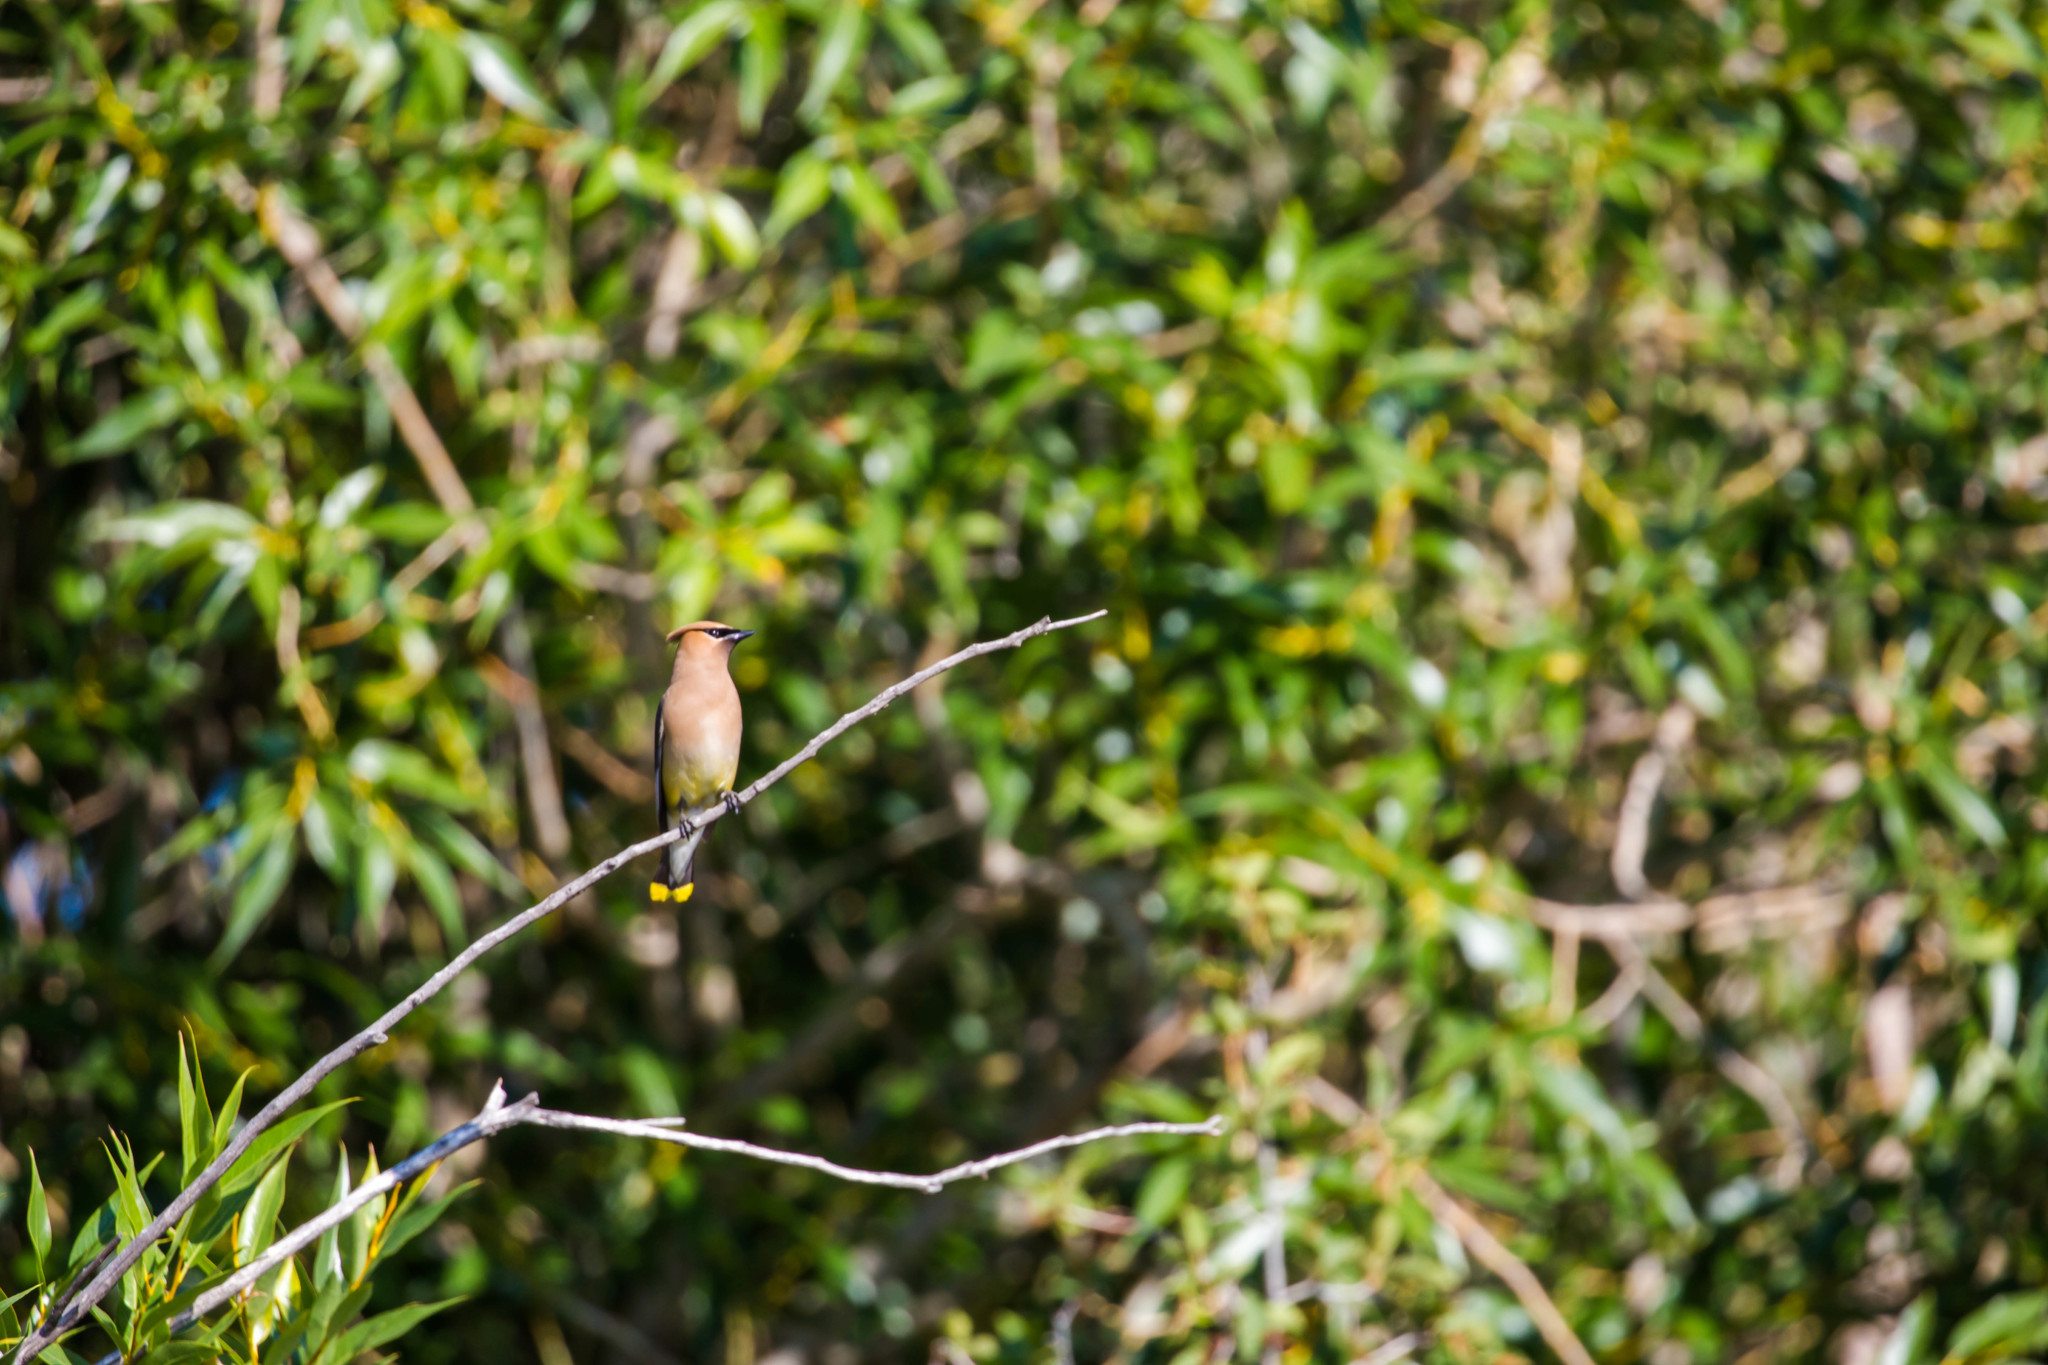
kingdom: Animalia
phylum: Chordata
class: Aves
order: Passeriformes
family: Bombycillidae
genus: Bombycilla
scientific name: Bombycilla cedrorum
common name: Cedar waxwing
